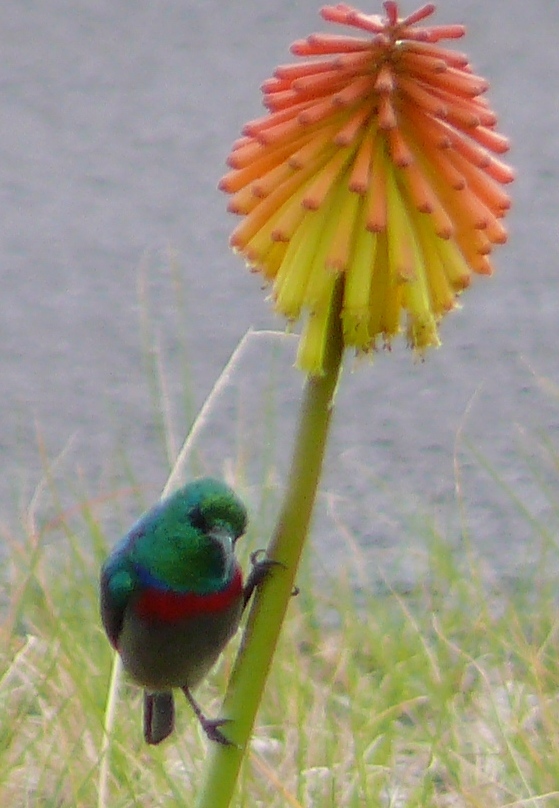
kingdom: Animalia
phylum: Chordata
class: Aves
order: Passeriformes
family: Nectariniidae
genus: Cinnyris
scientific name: Cinnyris chalybeus
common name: Southern double-collared sunbird
